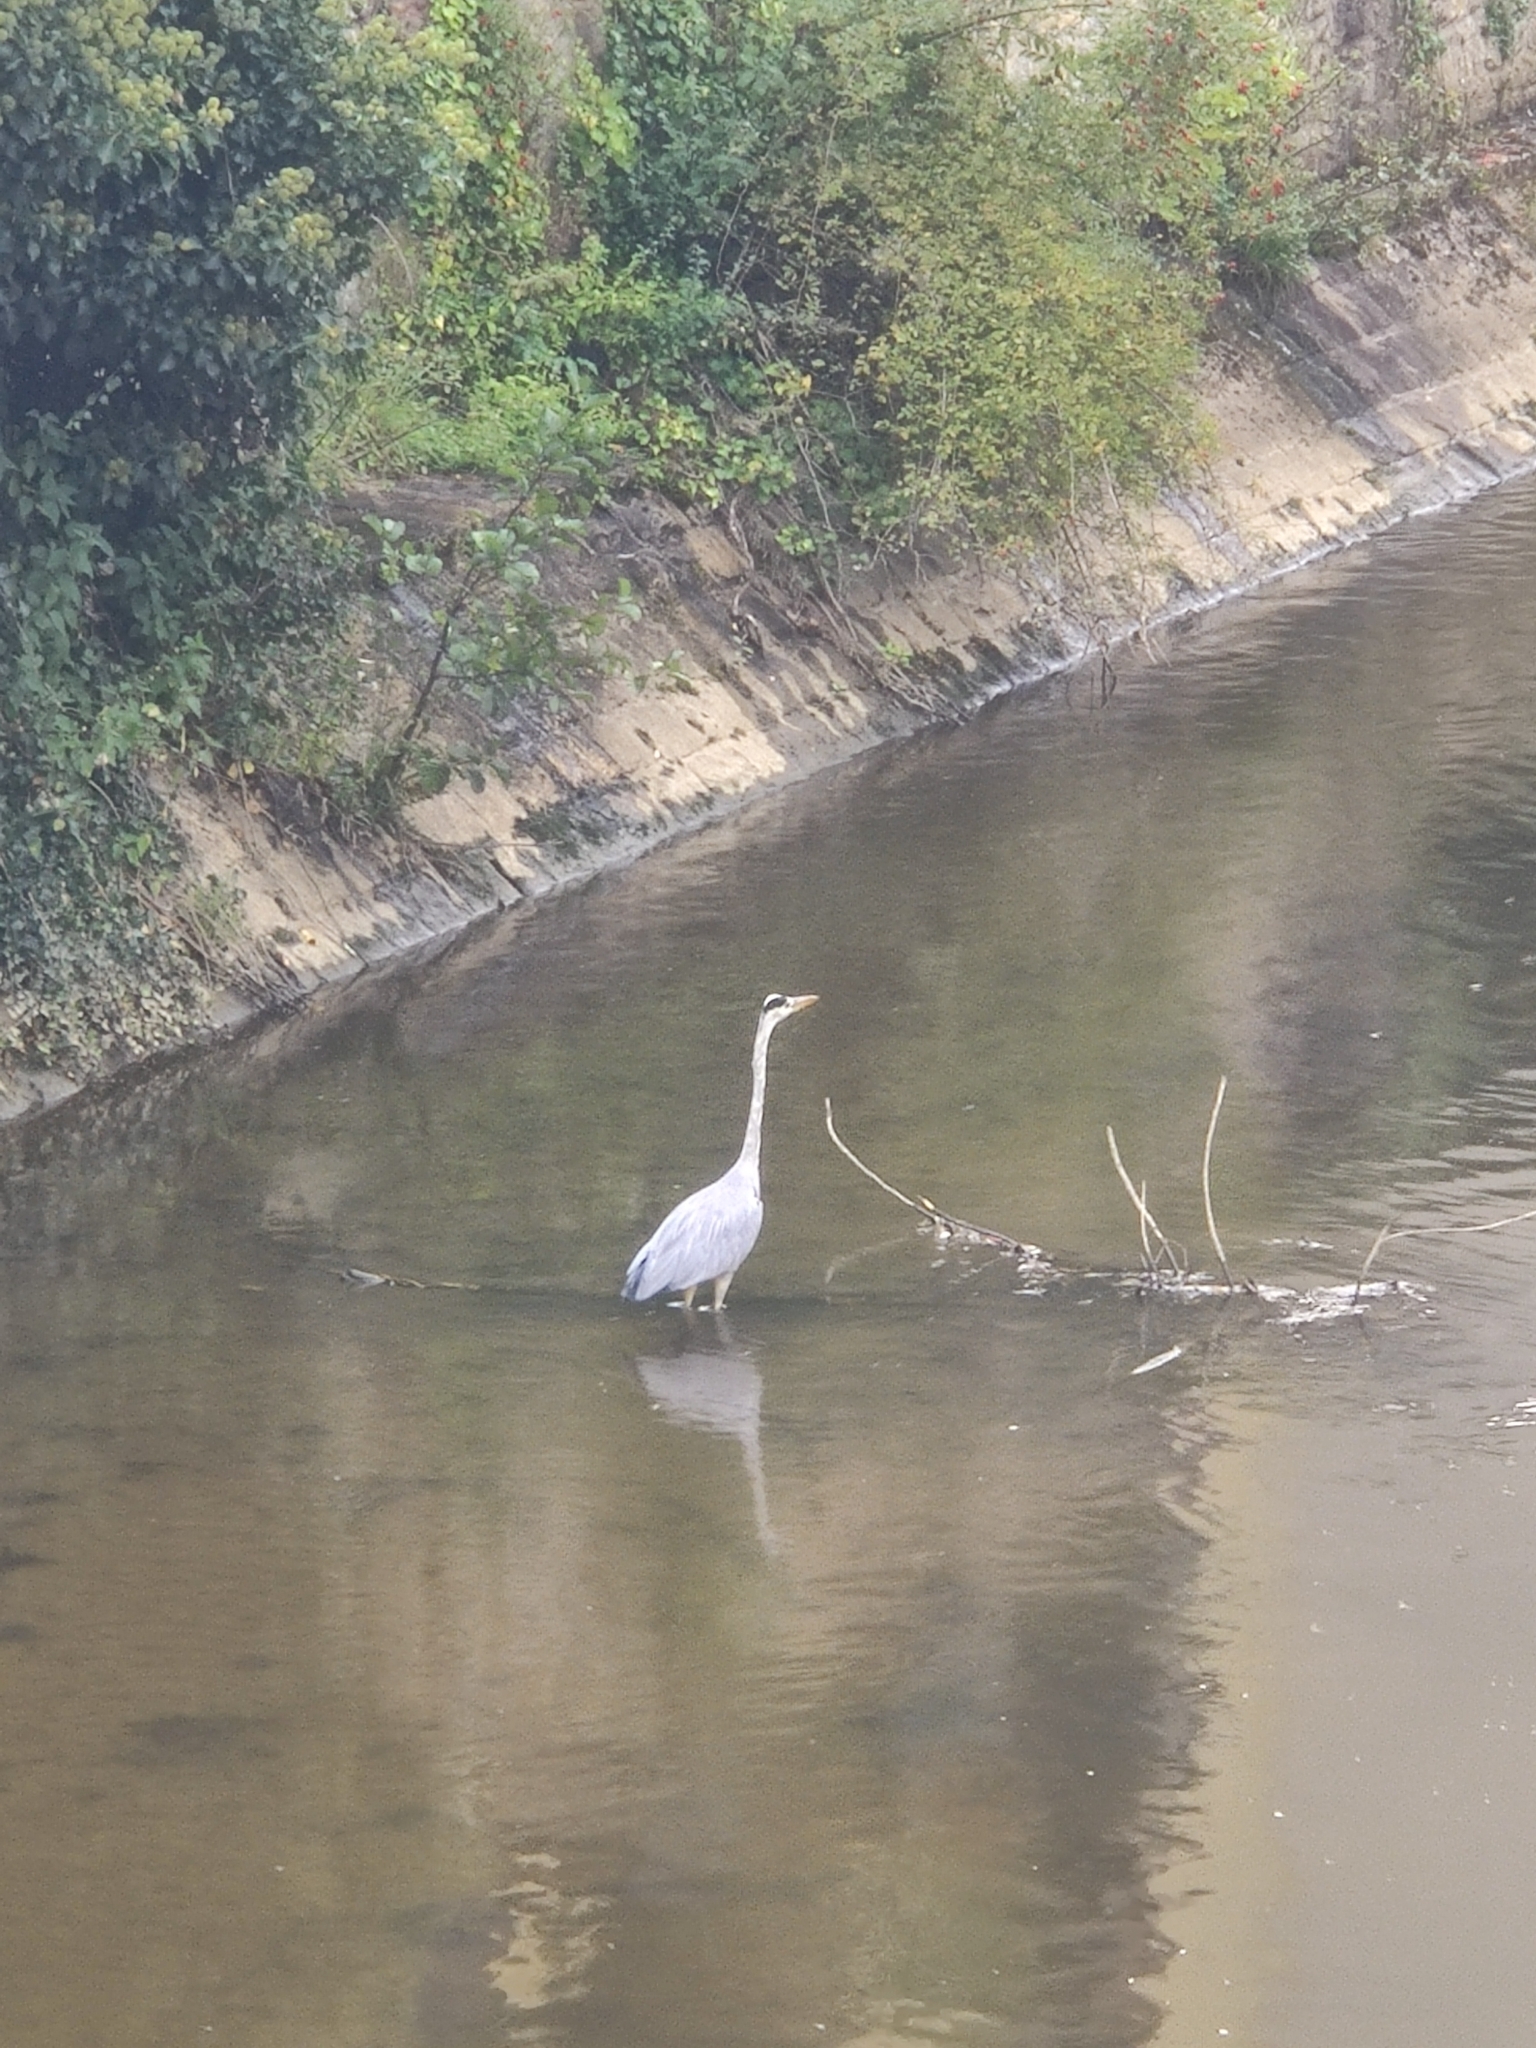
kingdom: Animalia
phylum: Chordata
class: Aves
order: Pelecaniformes
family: Ardeidae
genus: Ardea
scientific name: Ardea cinerea
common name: Grey heron
